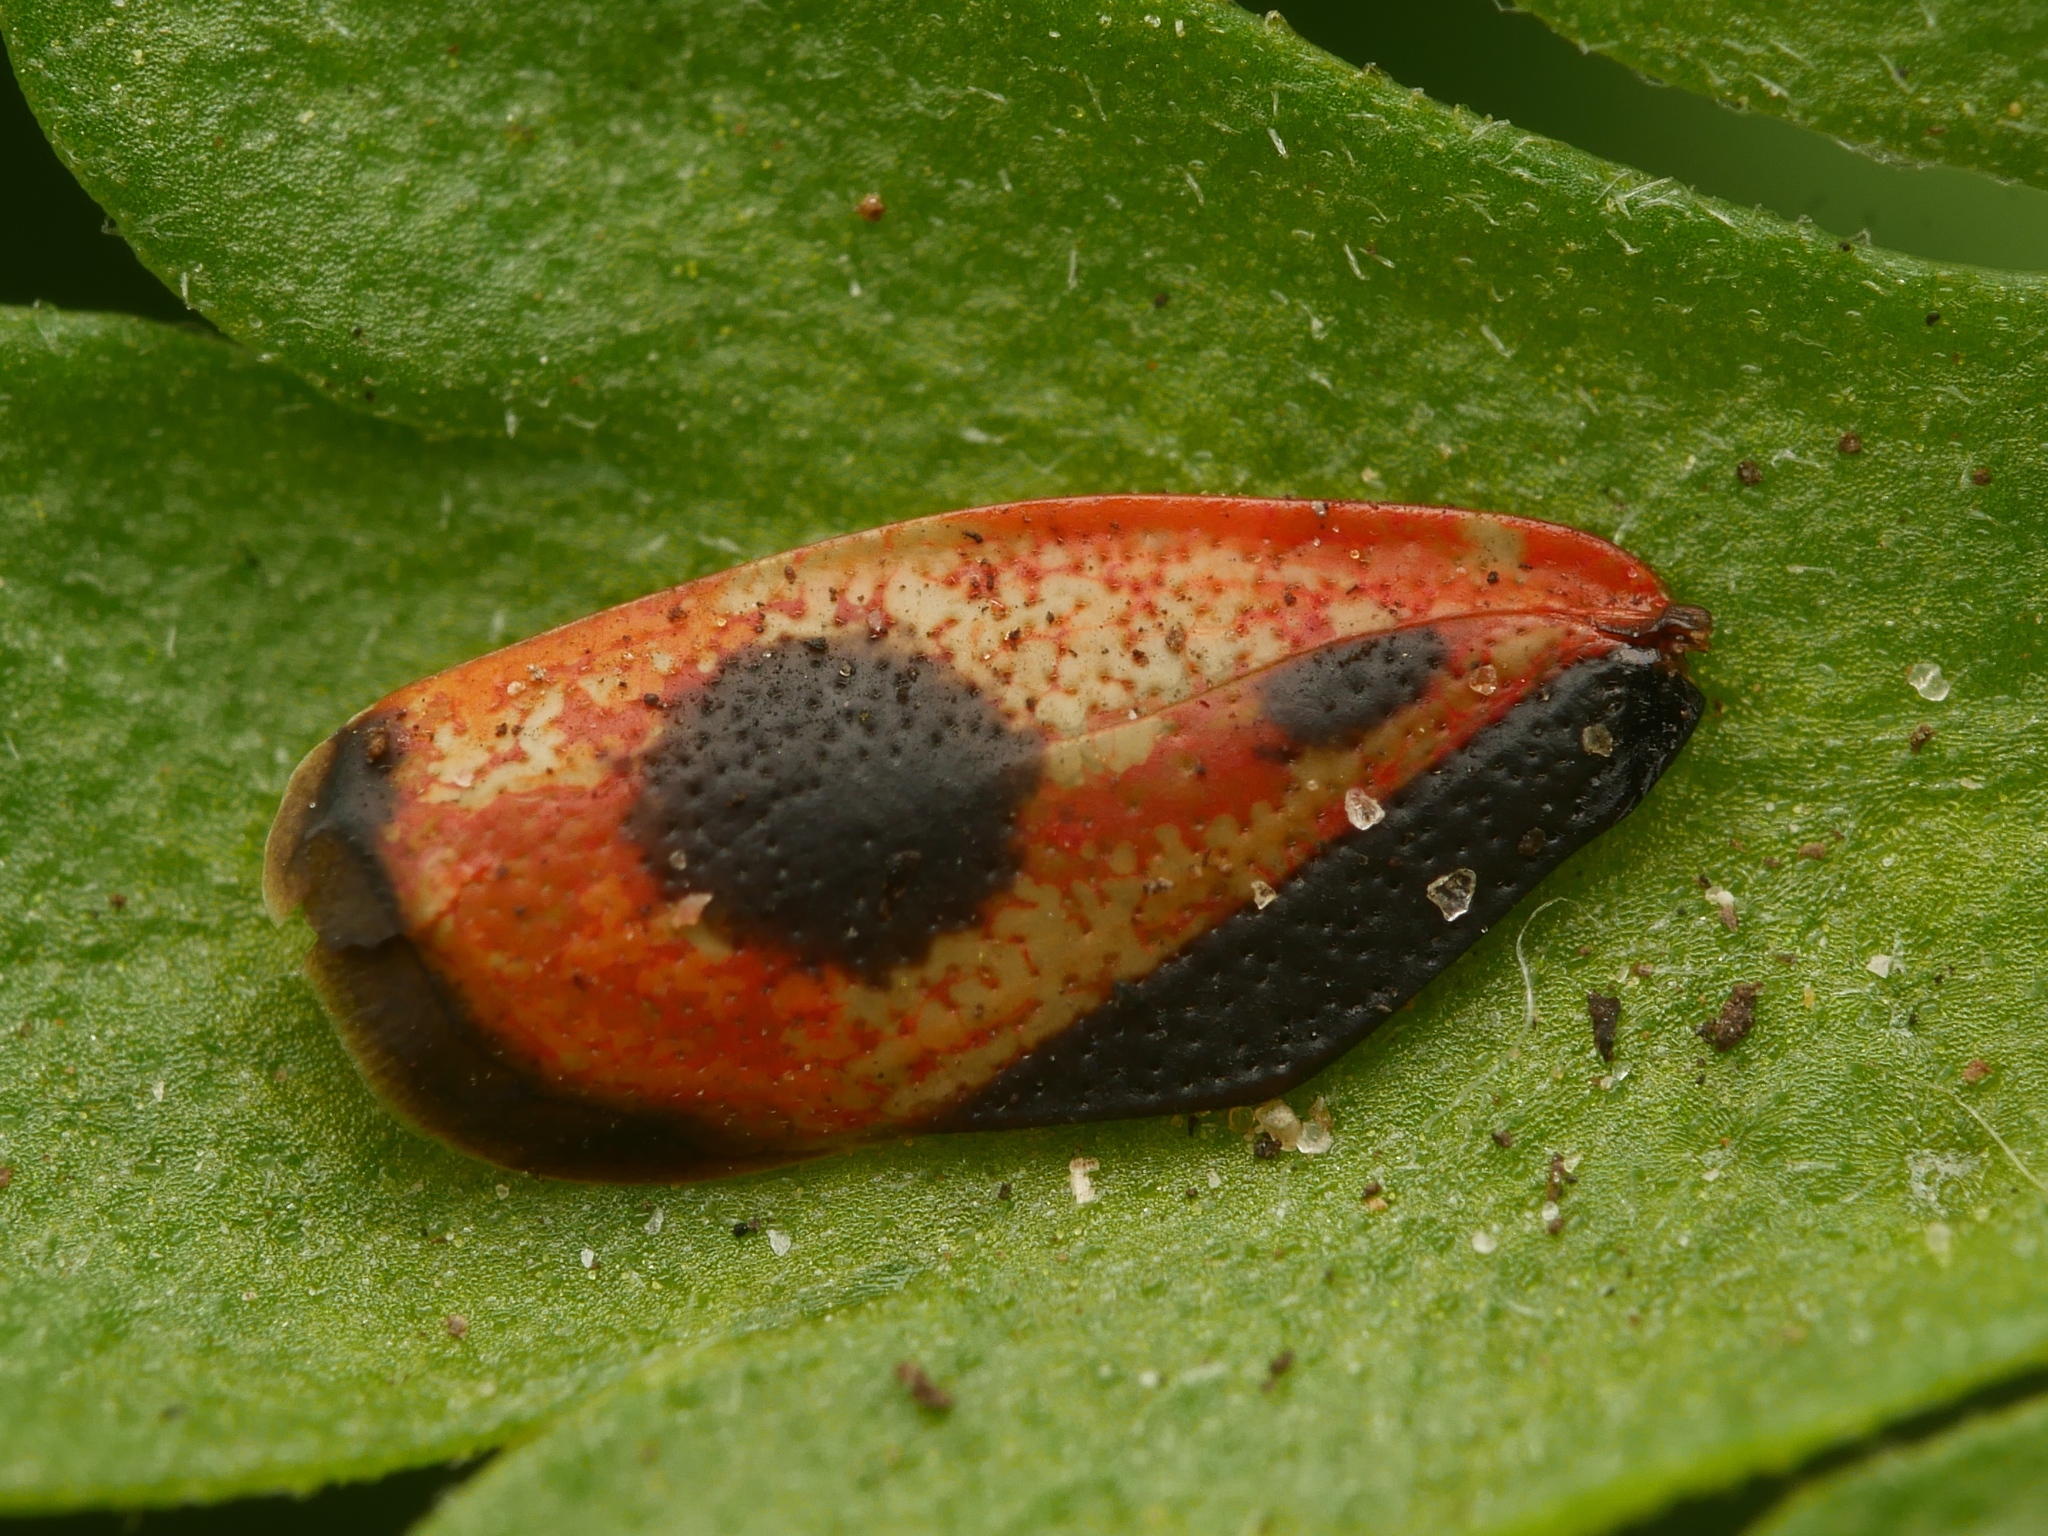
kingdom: Animalia
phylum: Arthropoda
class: Insecta
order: Hemiptera
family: Pyrrhocoridae
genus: Pyrrhocoris
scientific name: Pyrrhocoris apterus
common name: Firebug
